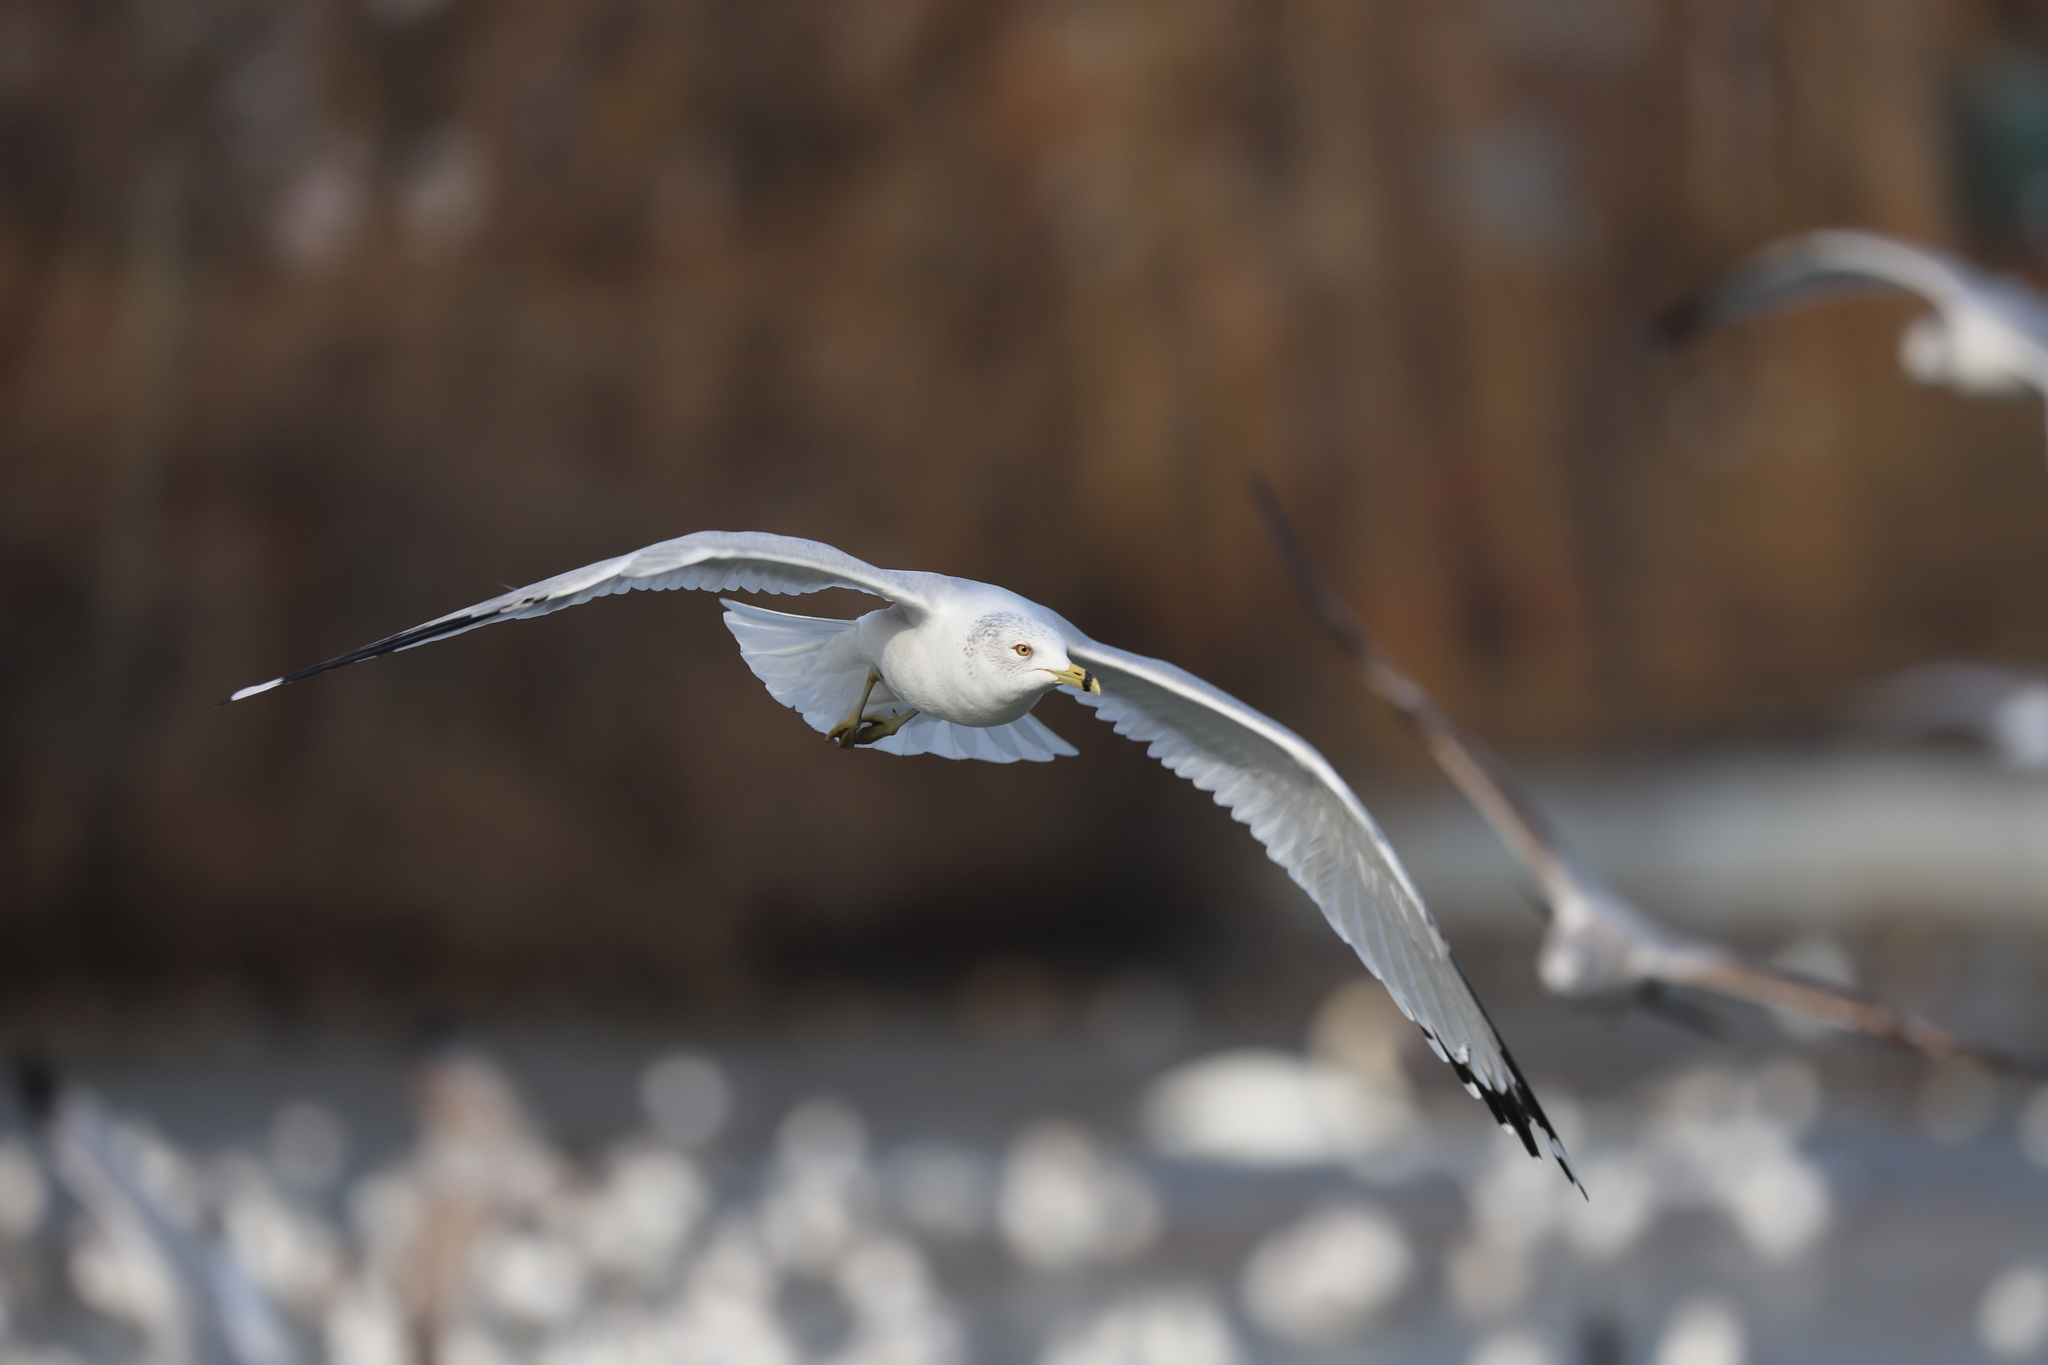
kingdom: Animalia
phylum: Chordata
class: Aves
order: Charadriiformes
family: Laridae
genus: Larus
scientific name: Larus delawarensis
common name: Ring-billed gull
